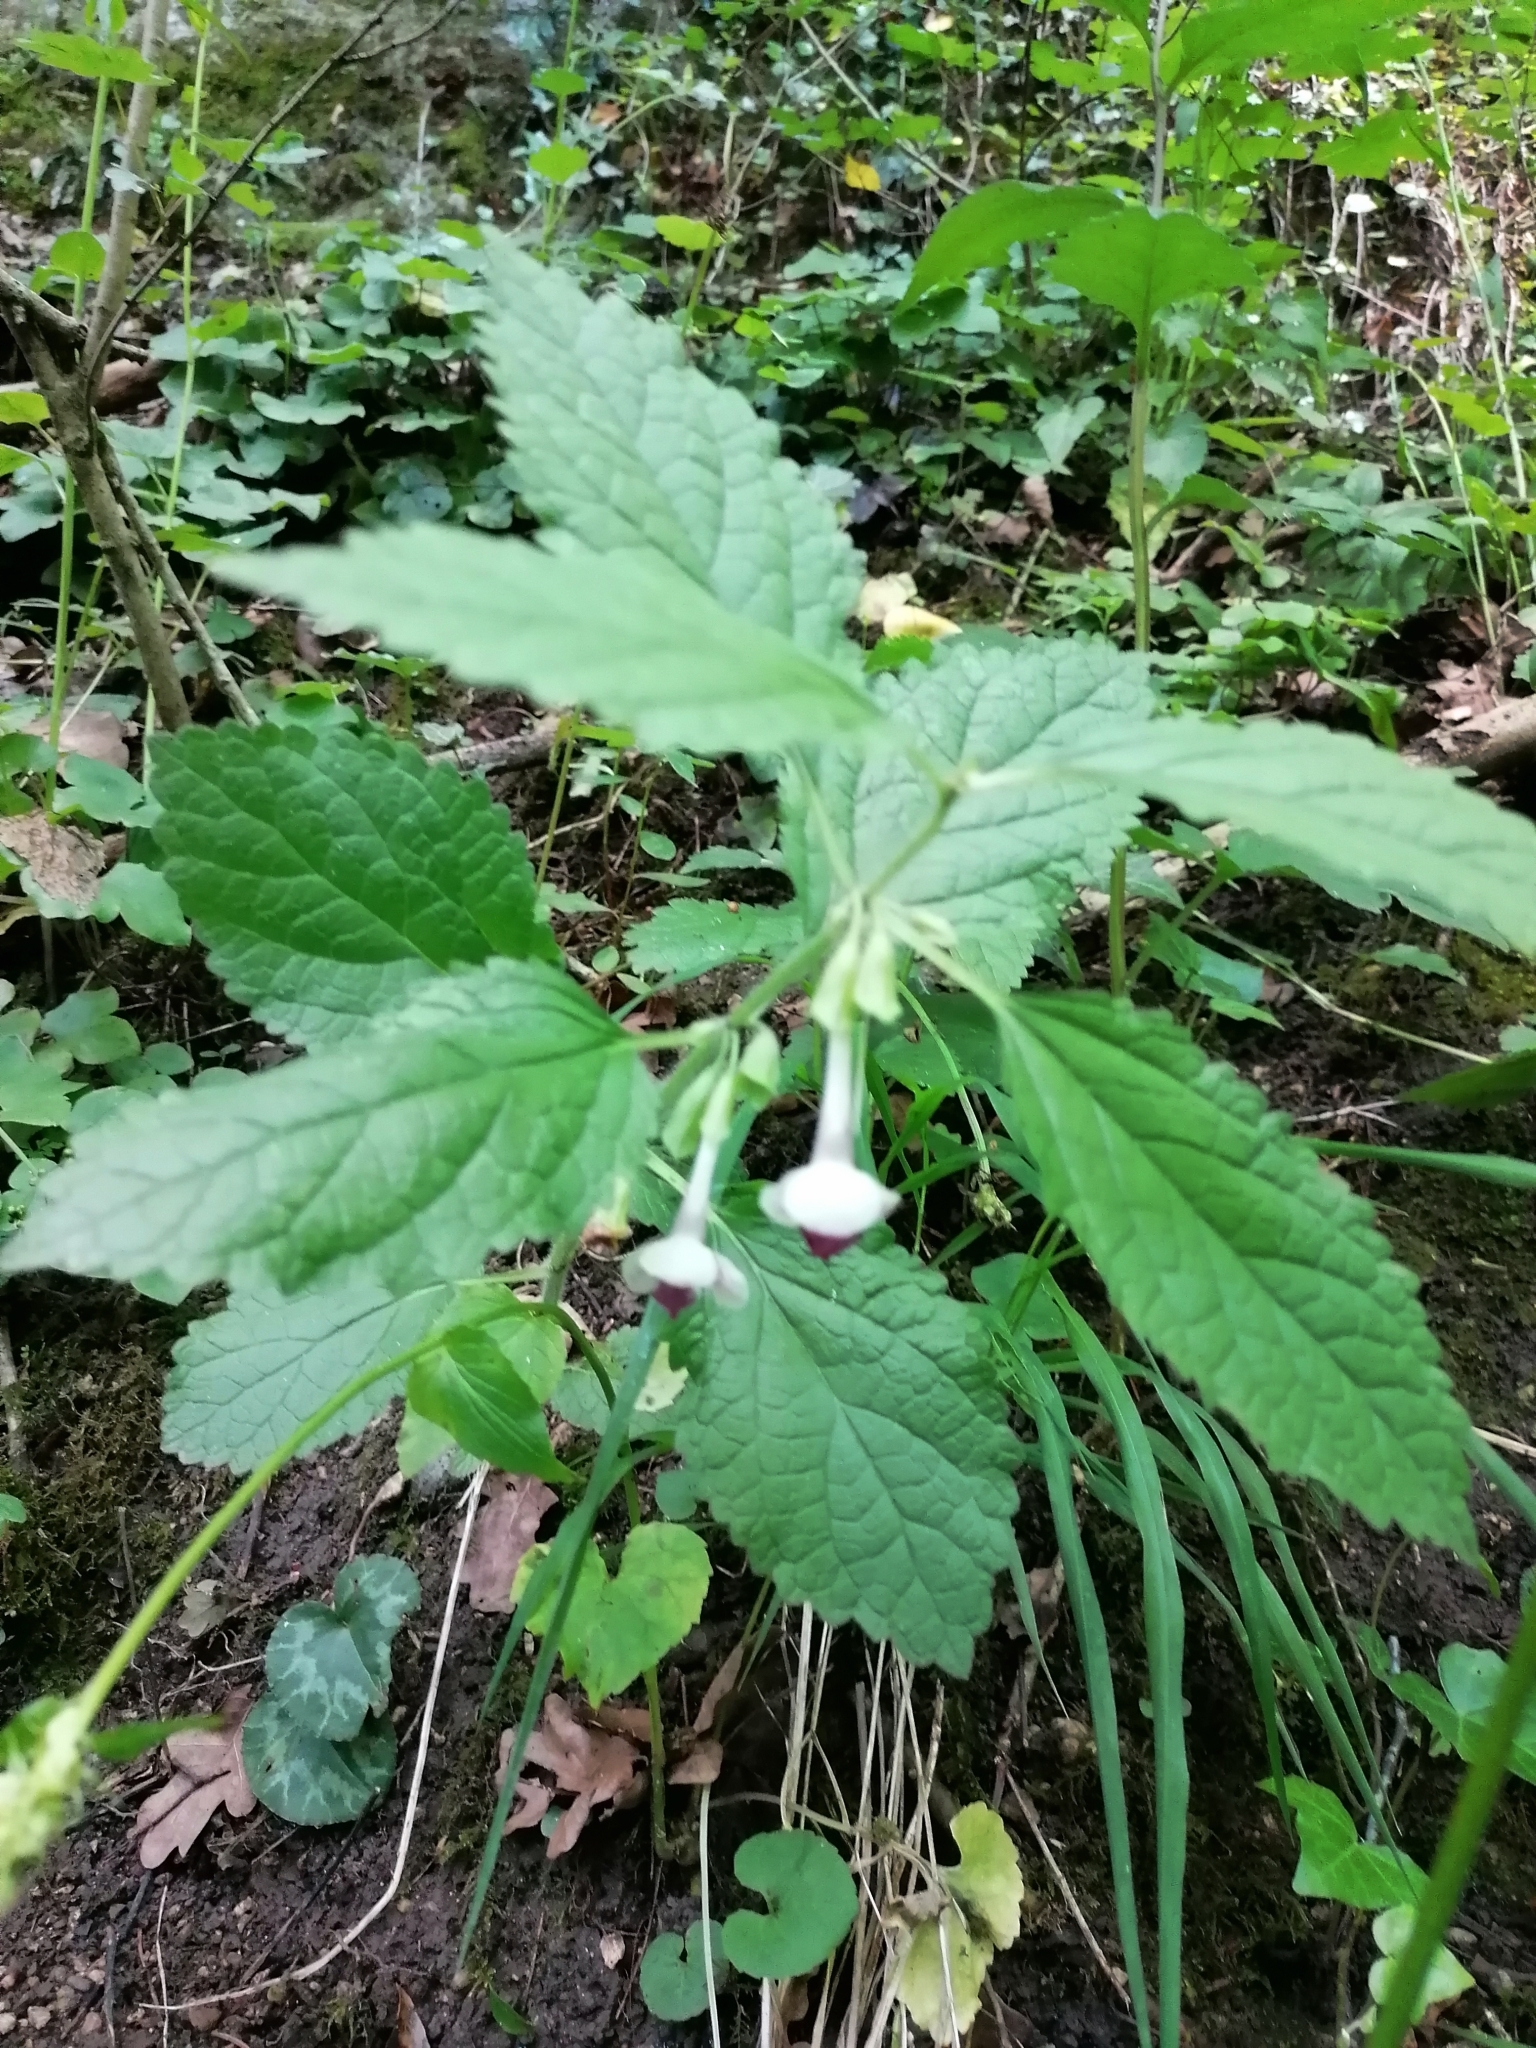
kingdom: Plantae
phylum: Tracheophyta
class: Magnoliopsida
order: Lamiales
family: Lamiaceae
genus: Melittis
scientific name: Melittis melissophyllum
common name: Bastard balm
